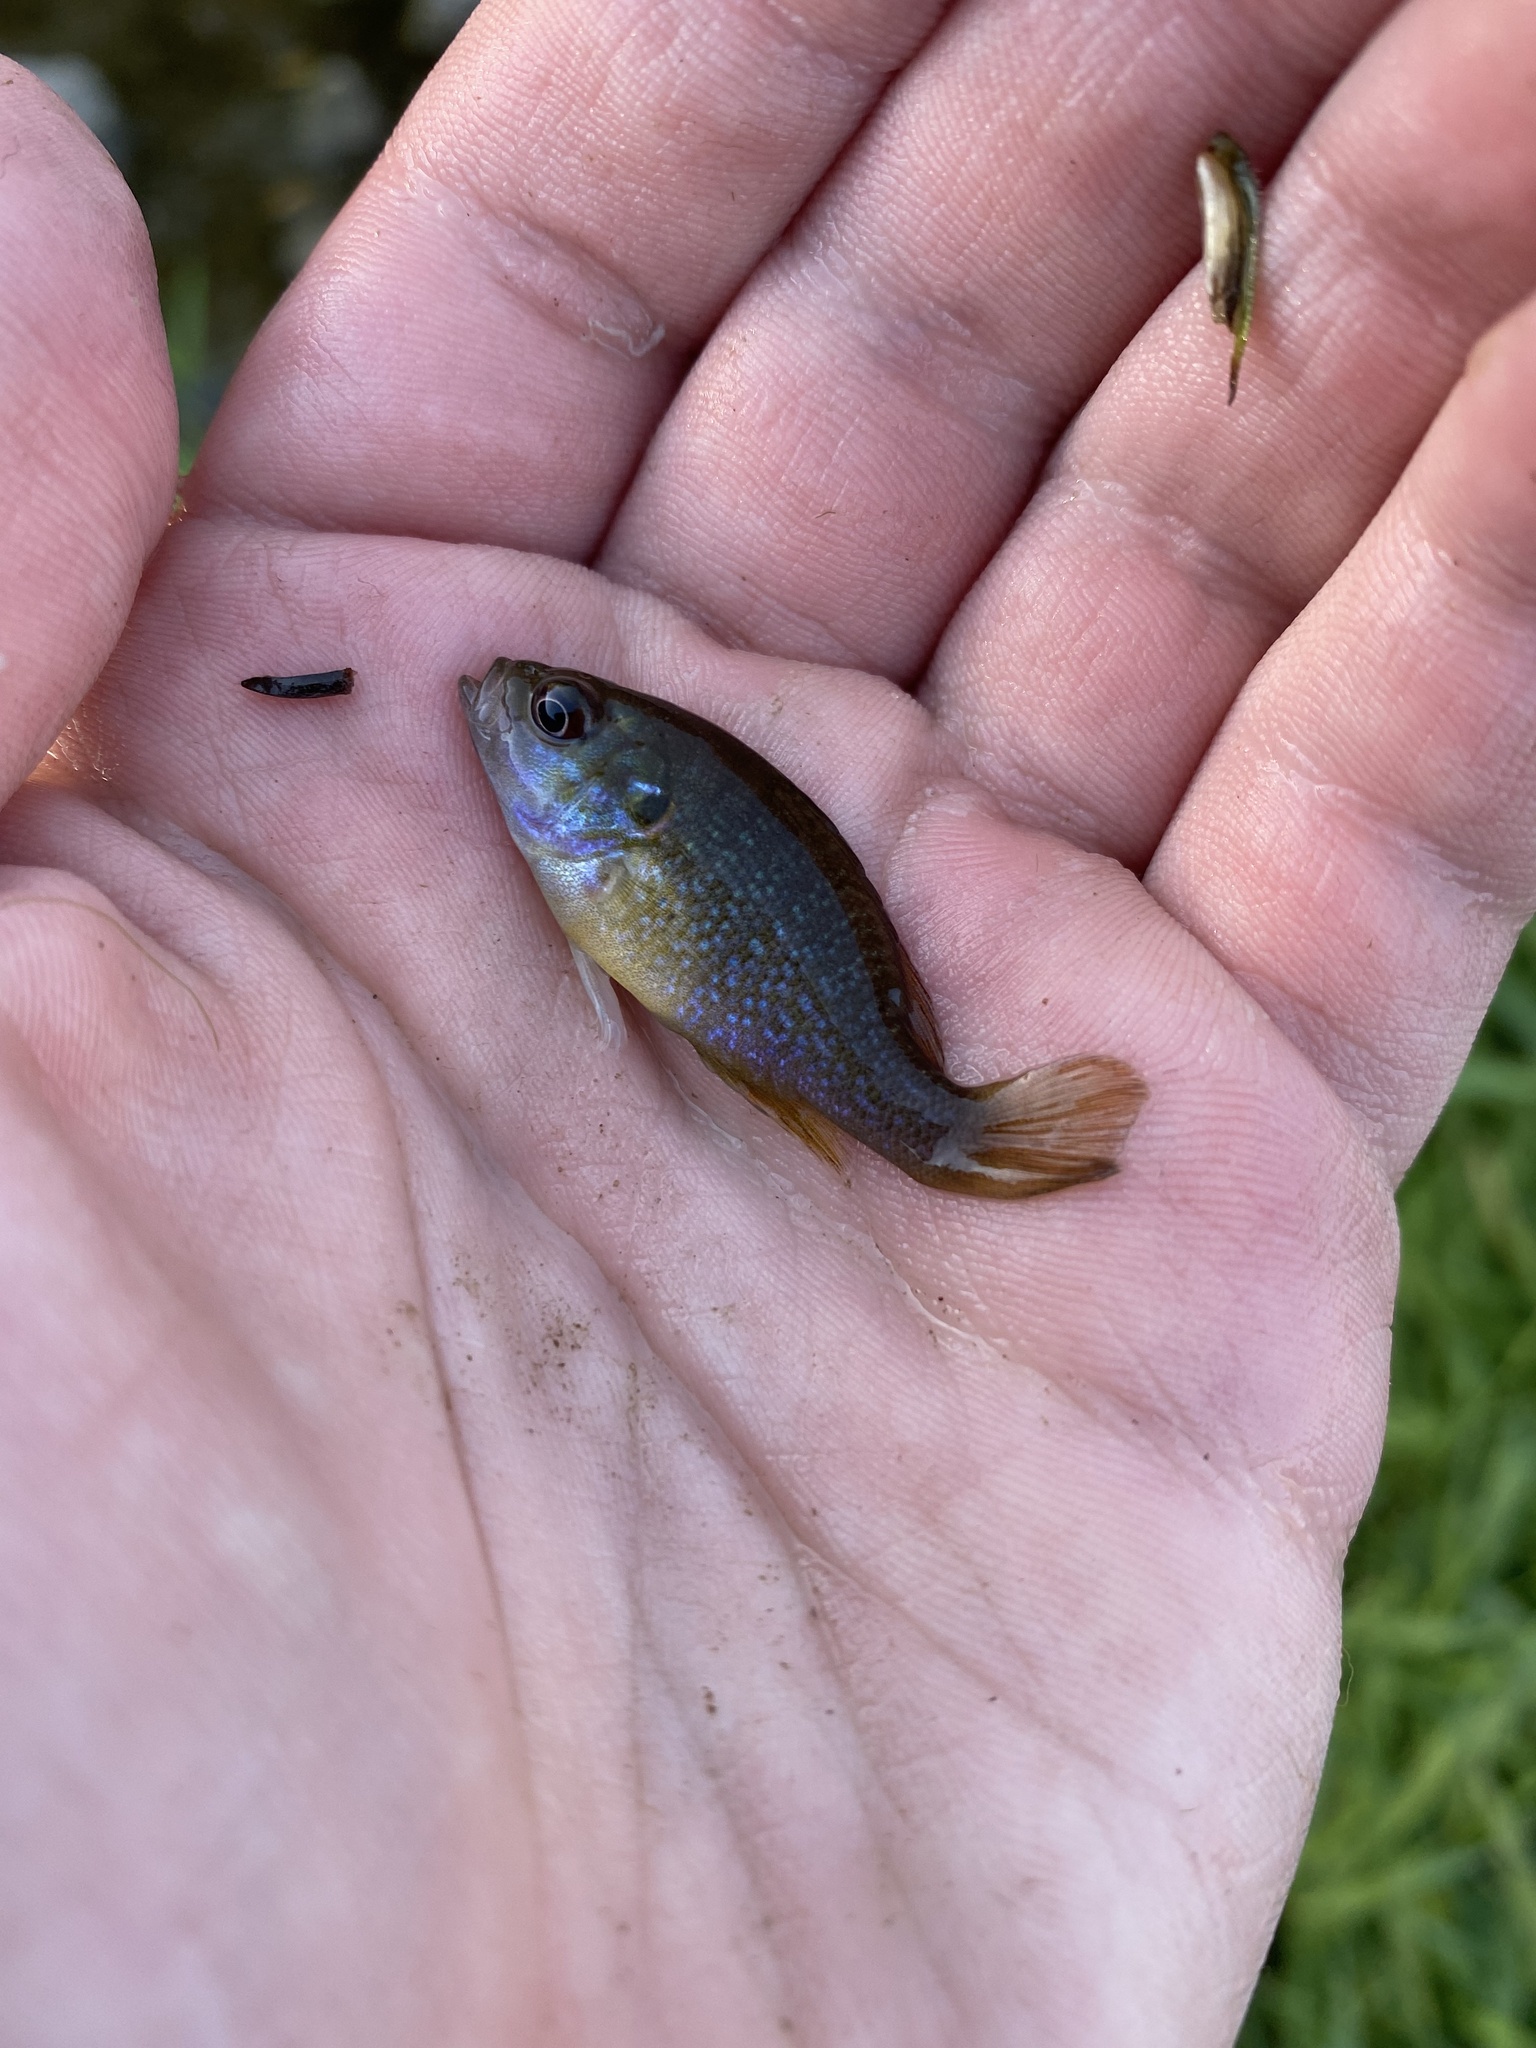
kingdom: Animalia
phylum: Chordata
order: Perciformes
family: Centrarchidae
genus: Lepomis
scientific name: Lepomis cyanellus
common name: Green sunfish
